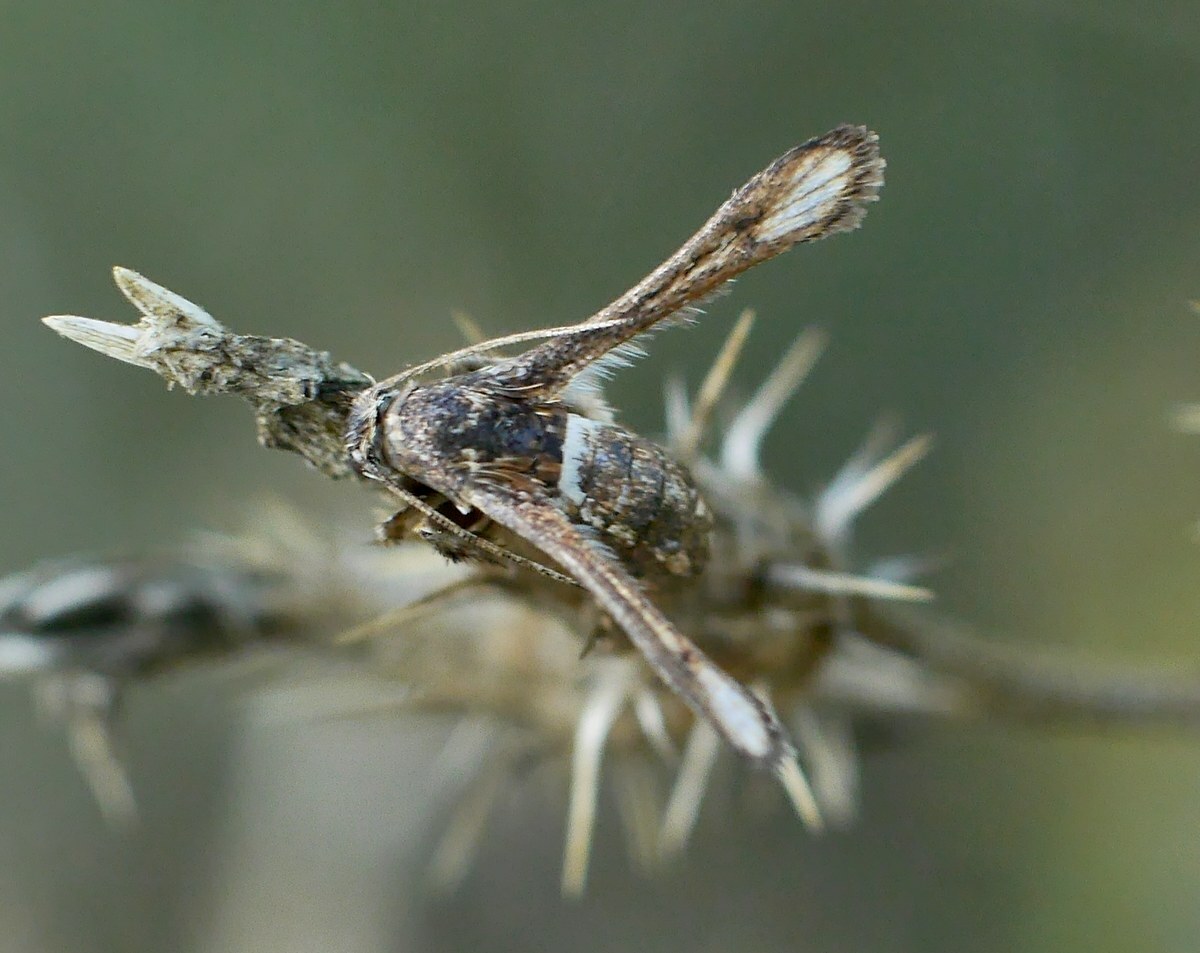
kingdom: Animalia
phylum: Arthropoda
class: Insecta
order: Lepidoptera
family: Sesiidae
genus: Microsphecia
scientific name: Microsphecia brosiformis
